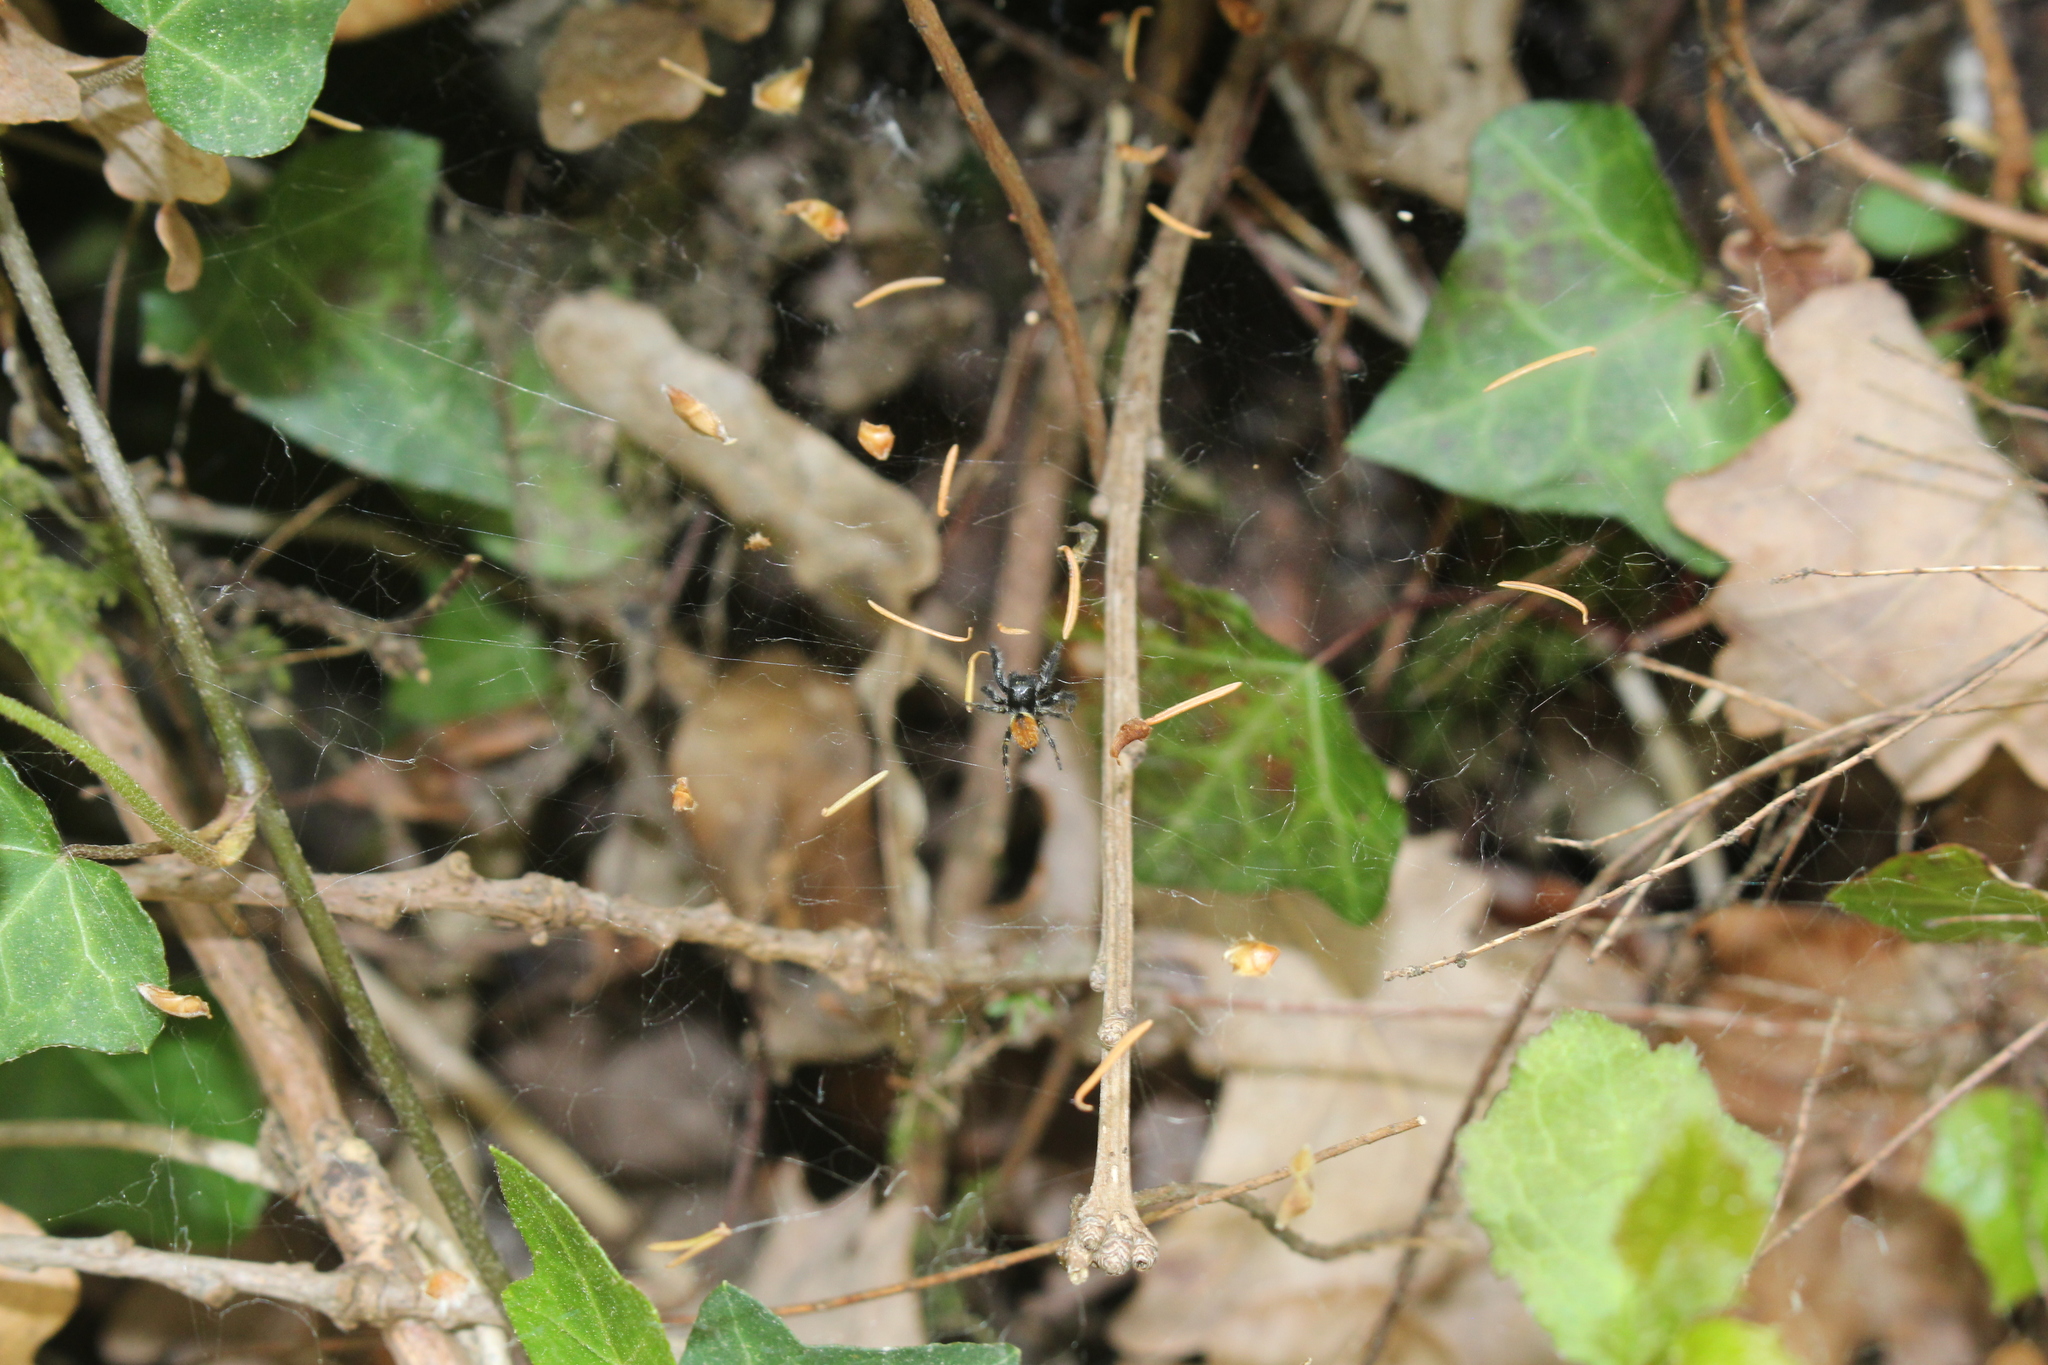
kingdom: Animalia
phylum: Arthropoda
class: Arachnida
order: Araneae
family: Salticidae
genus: Carrhotus
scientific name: Carrhotus xanthogramma
